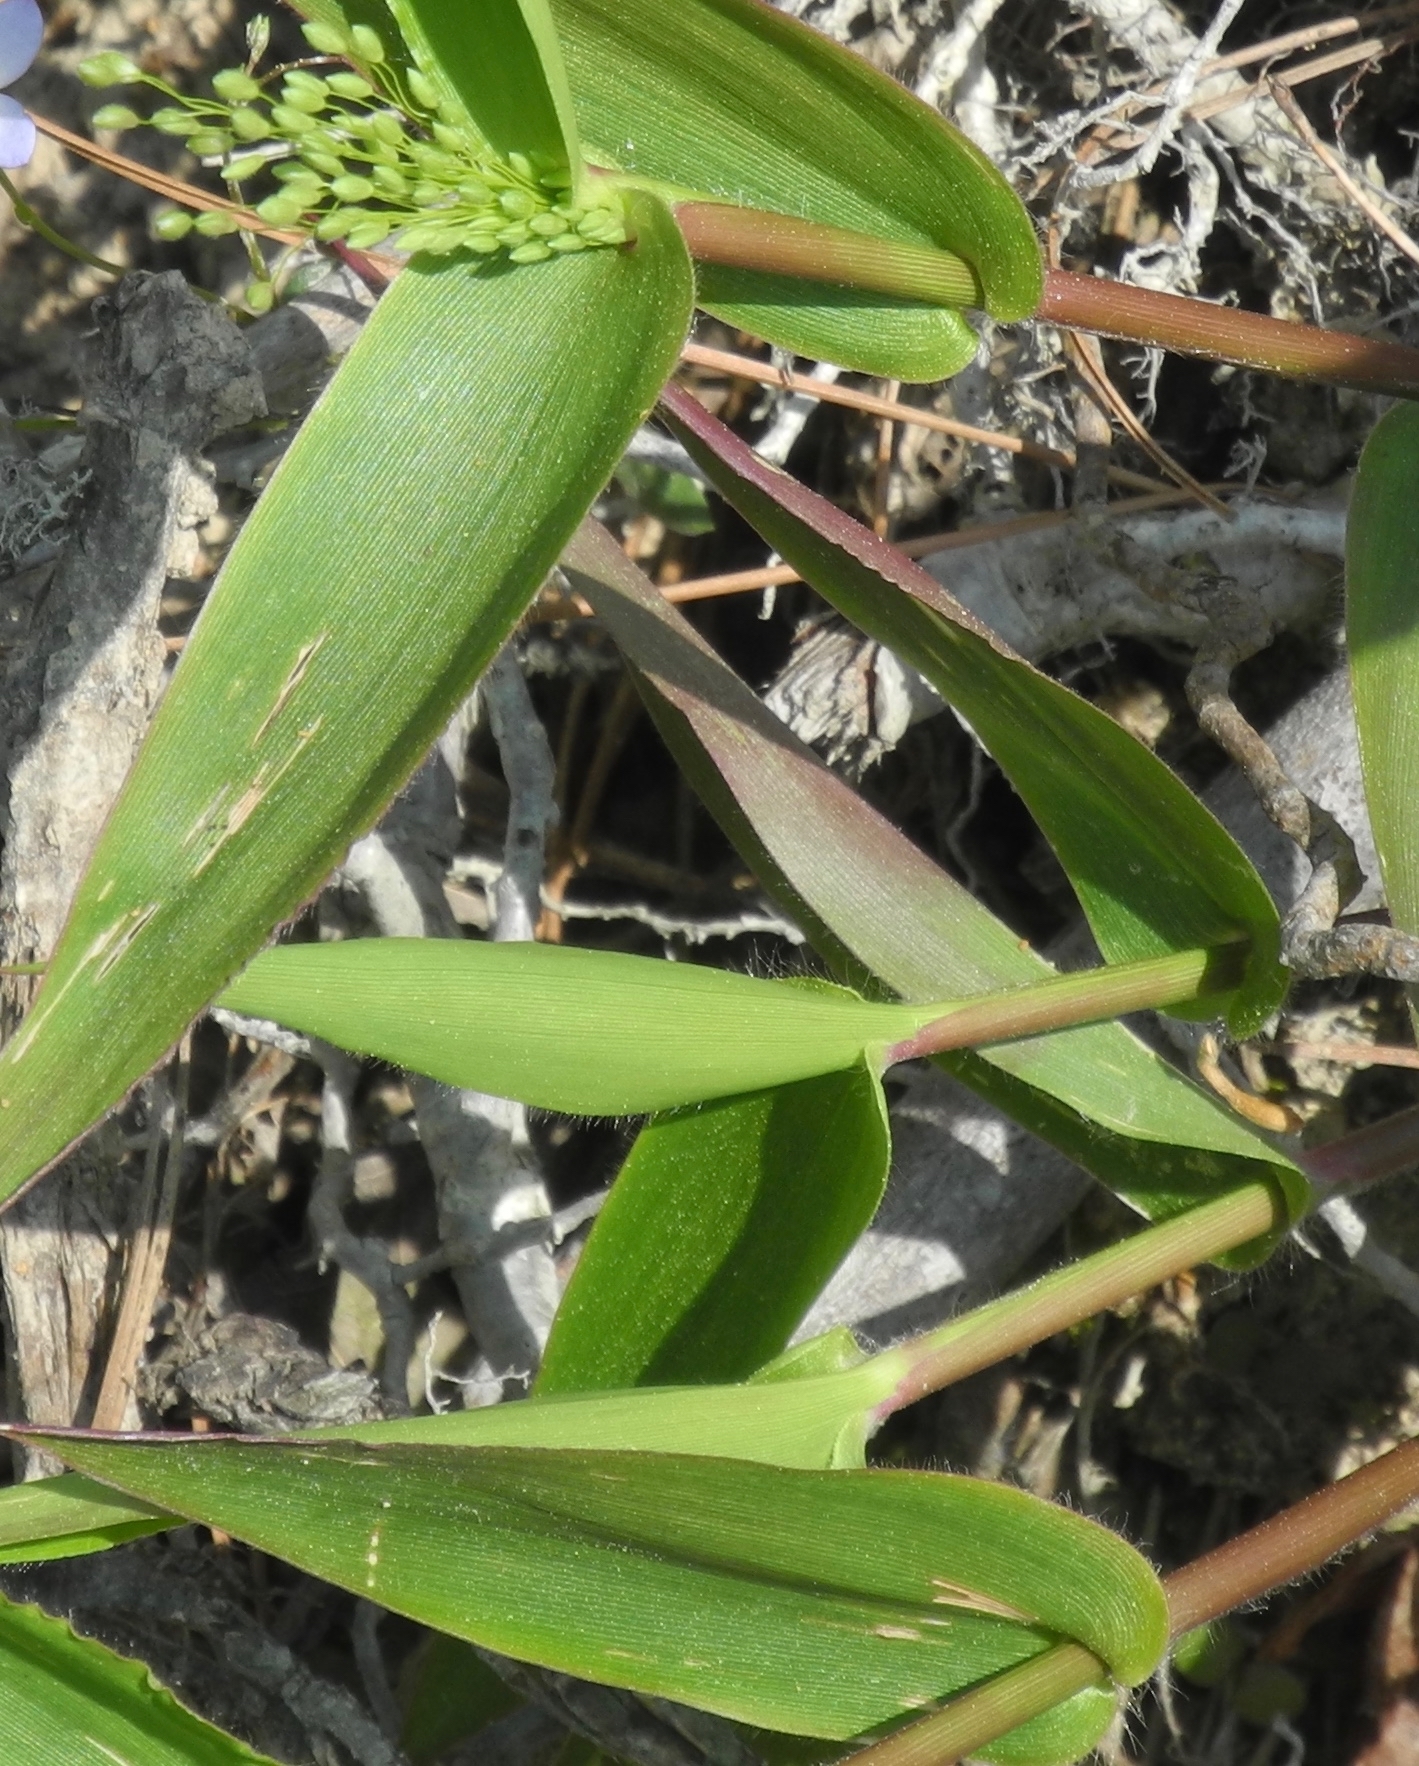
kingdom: Plantae
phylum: Tracheophyta
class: Liliopsida
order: Poales
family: Poaceae
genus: Dichanthelium
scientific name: Dichanthelium commutatum
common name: Variable witchgrass
